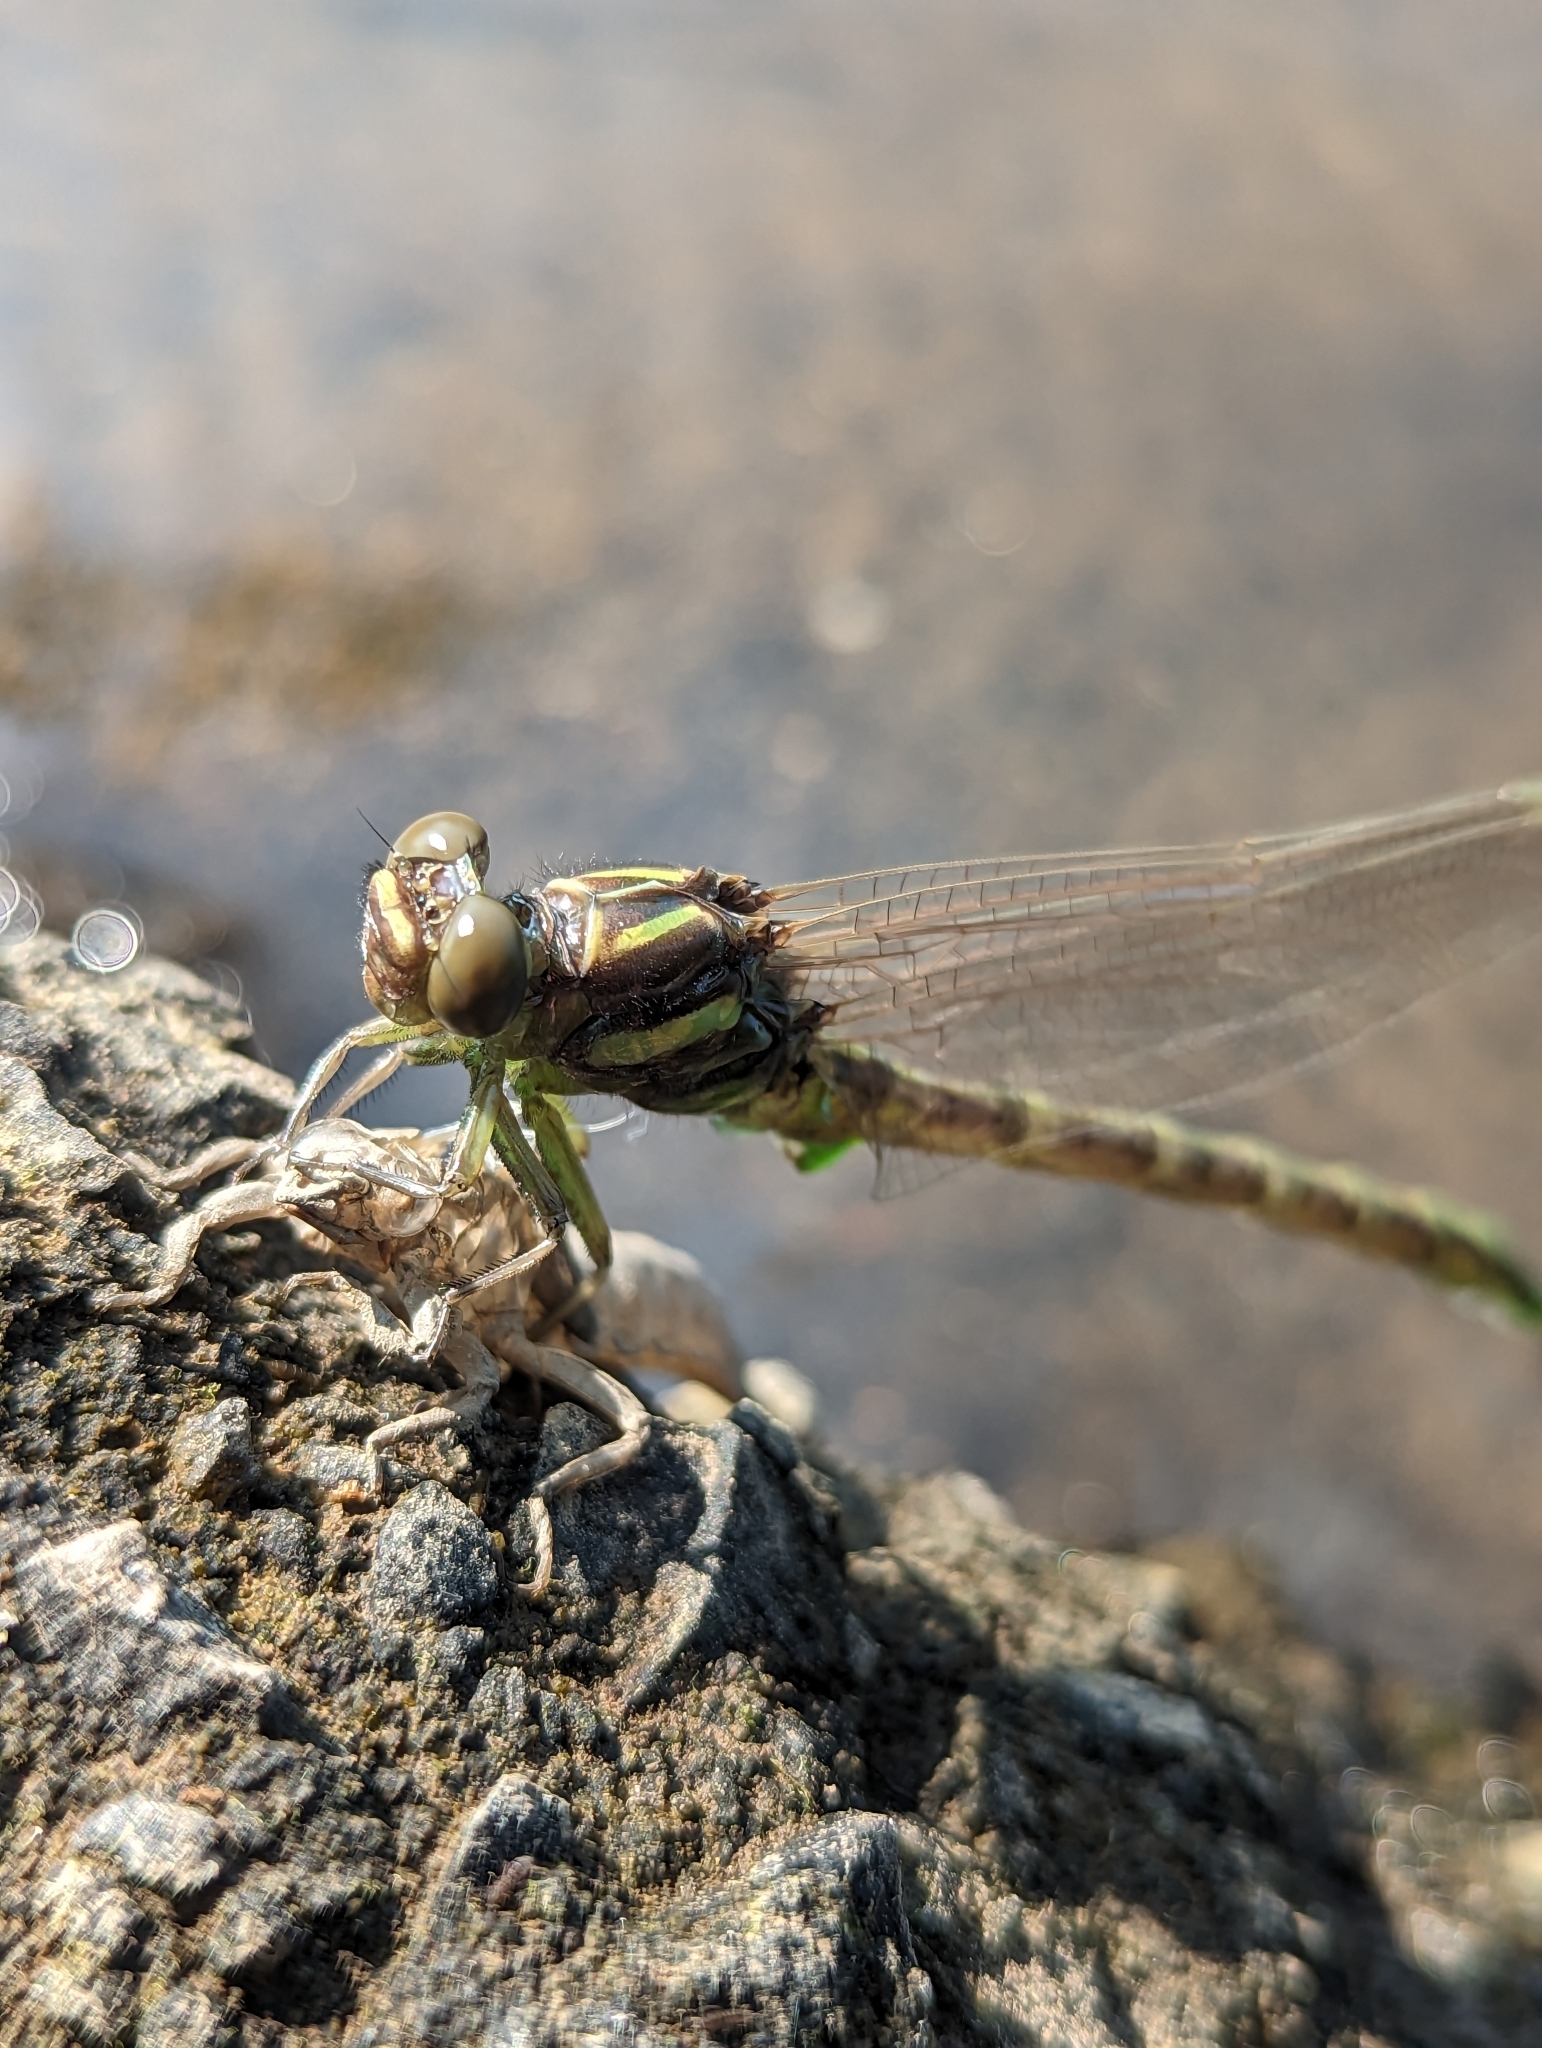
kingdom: Animalia
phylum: Arthropoda
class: Insecta
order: Odonata
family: Gomphidae
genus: Stylurus
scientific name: Stylurus spiniceps
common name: Arrow clubtail
